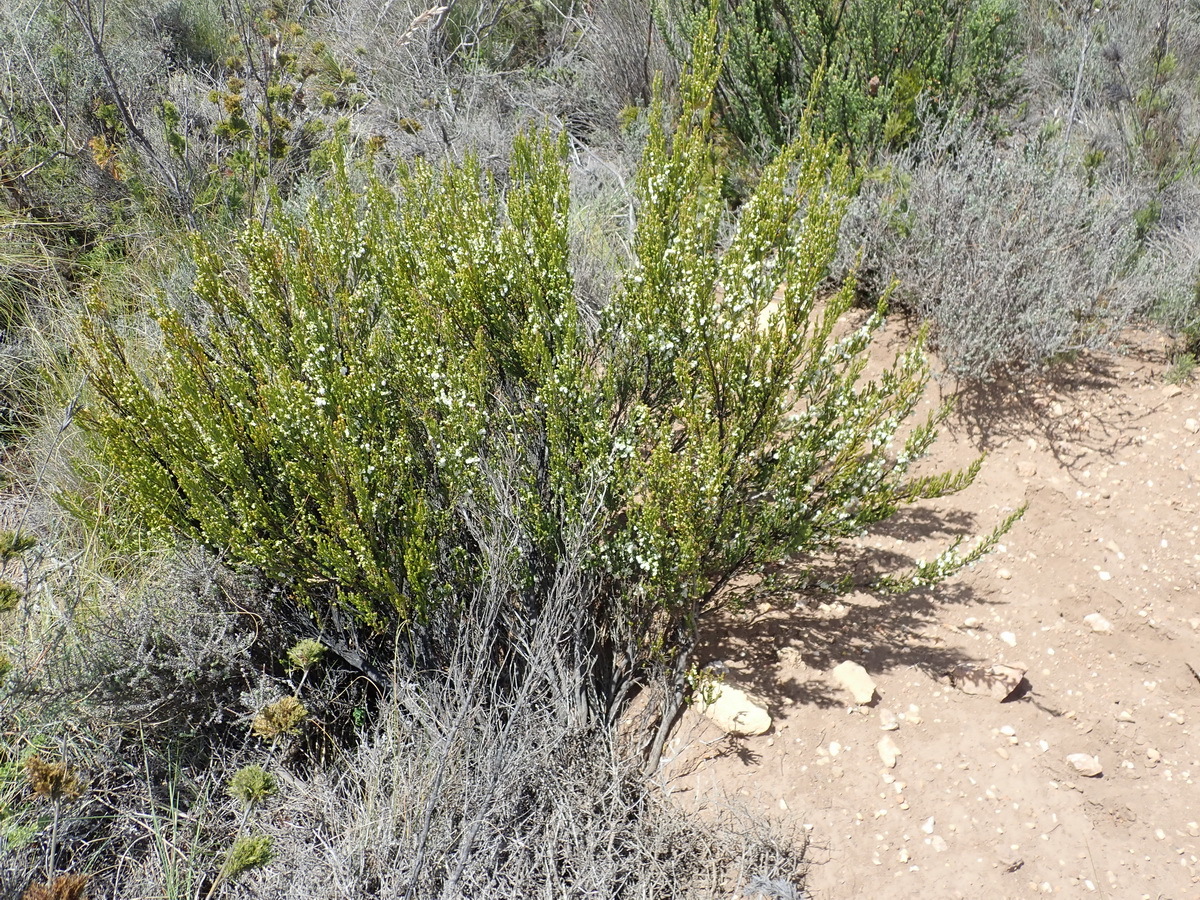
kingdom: Plantae
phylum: Tracheophyta
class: Magnoliopsida
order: Ericales
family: Ericaceae
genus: Erica
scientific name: Erica glomiflora
